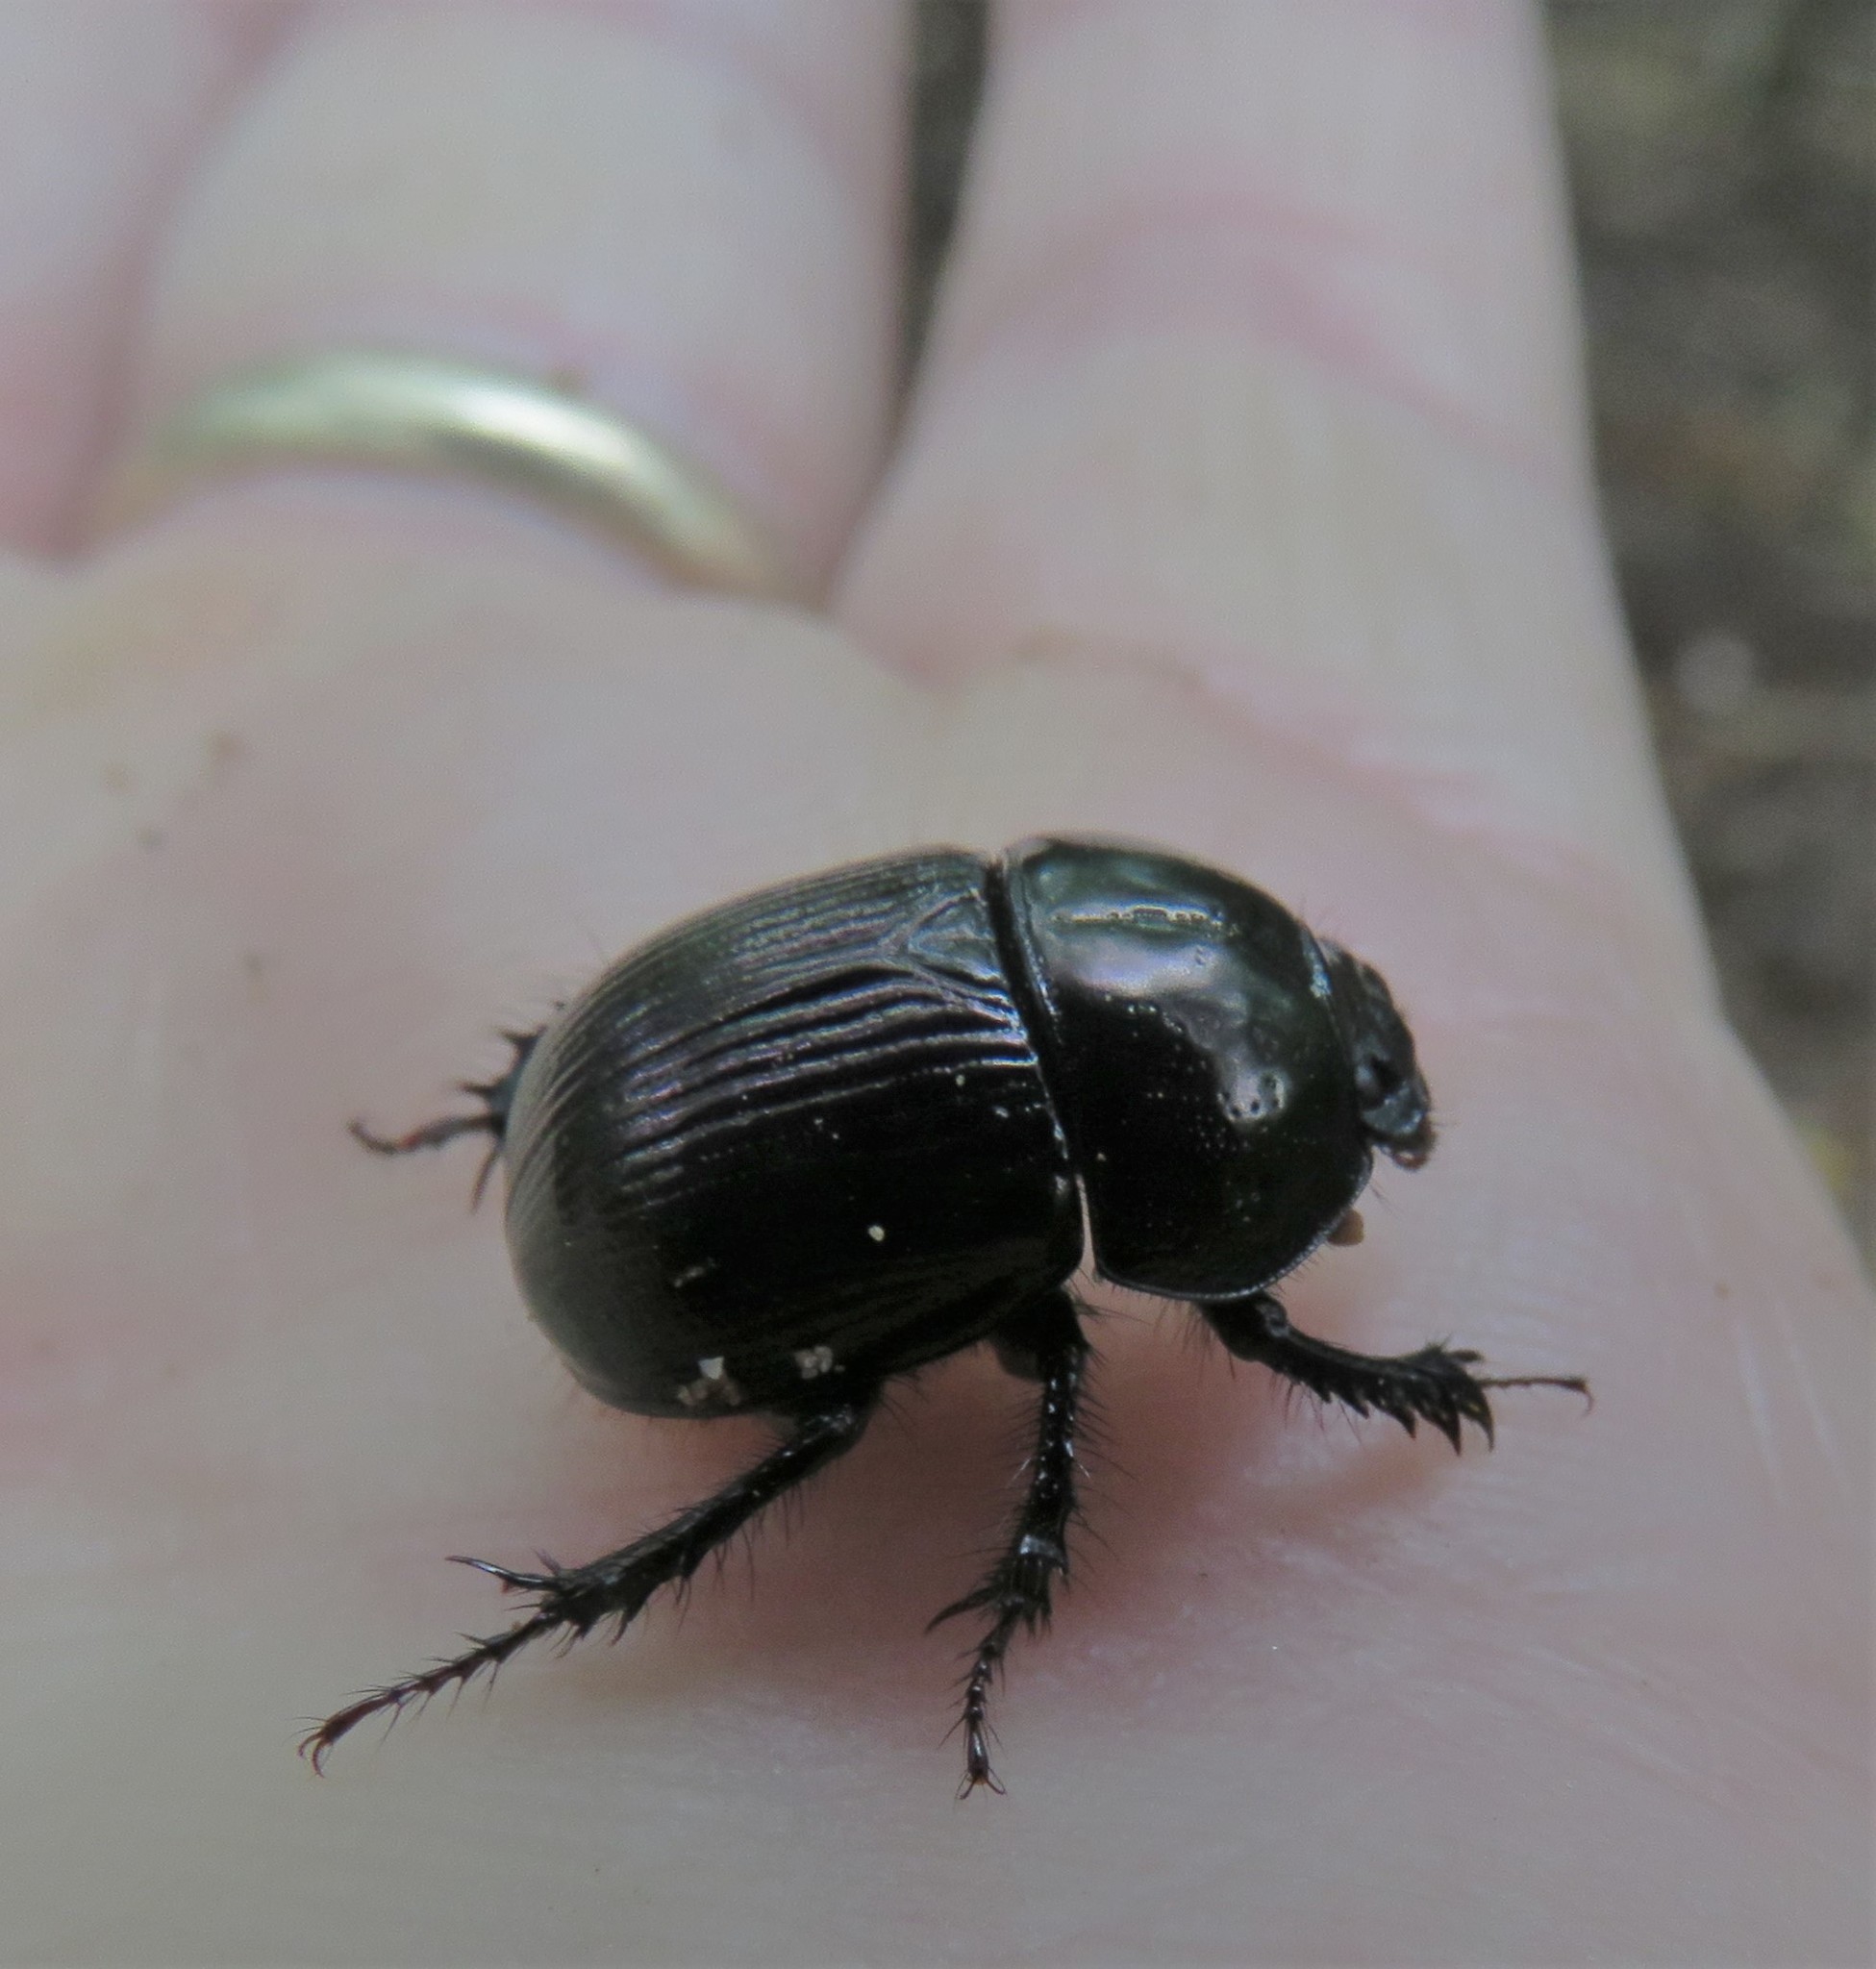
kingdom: Animalia
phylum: Arthropoda
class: Insecta
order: Coleoptera
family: Geotrupidae
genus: Anoplotrupes
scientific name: Anoplotrupes hornii
